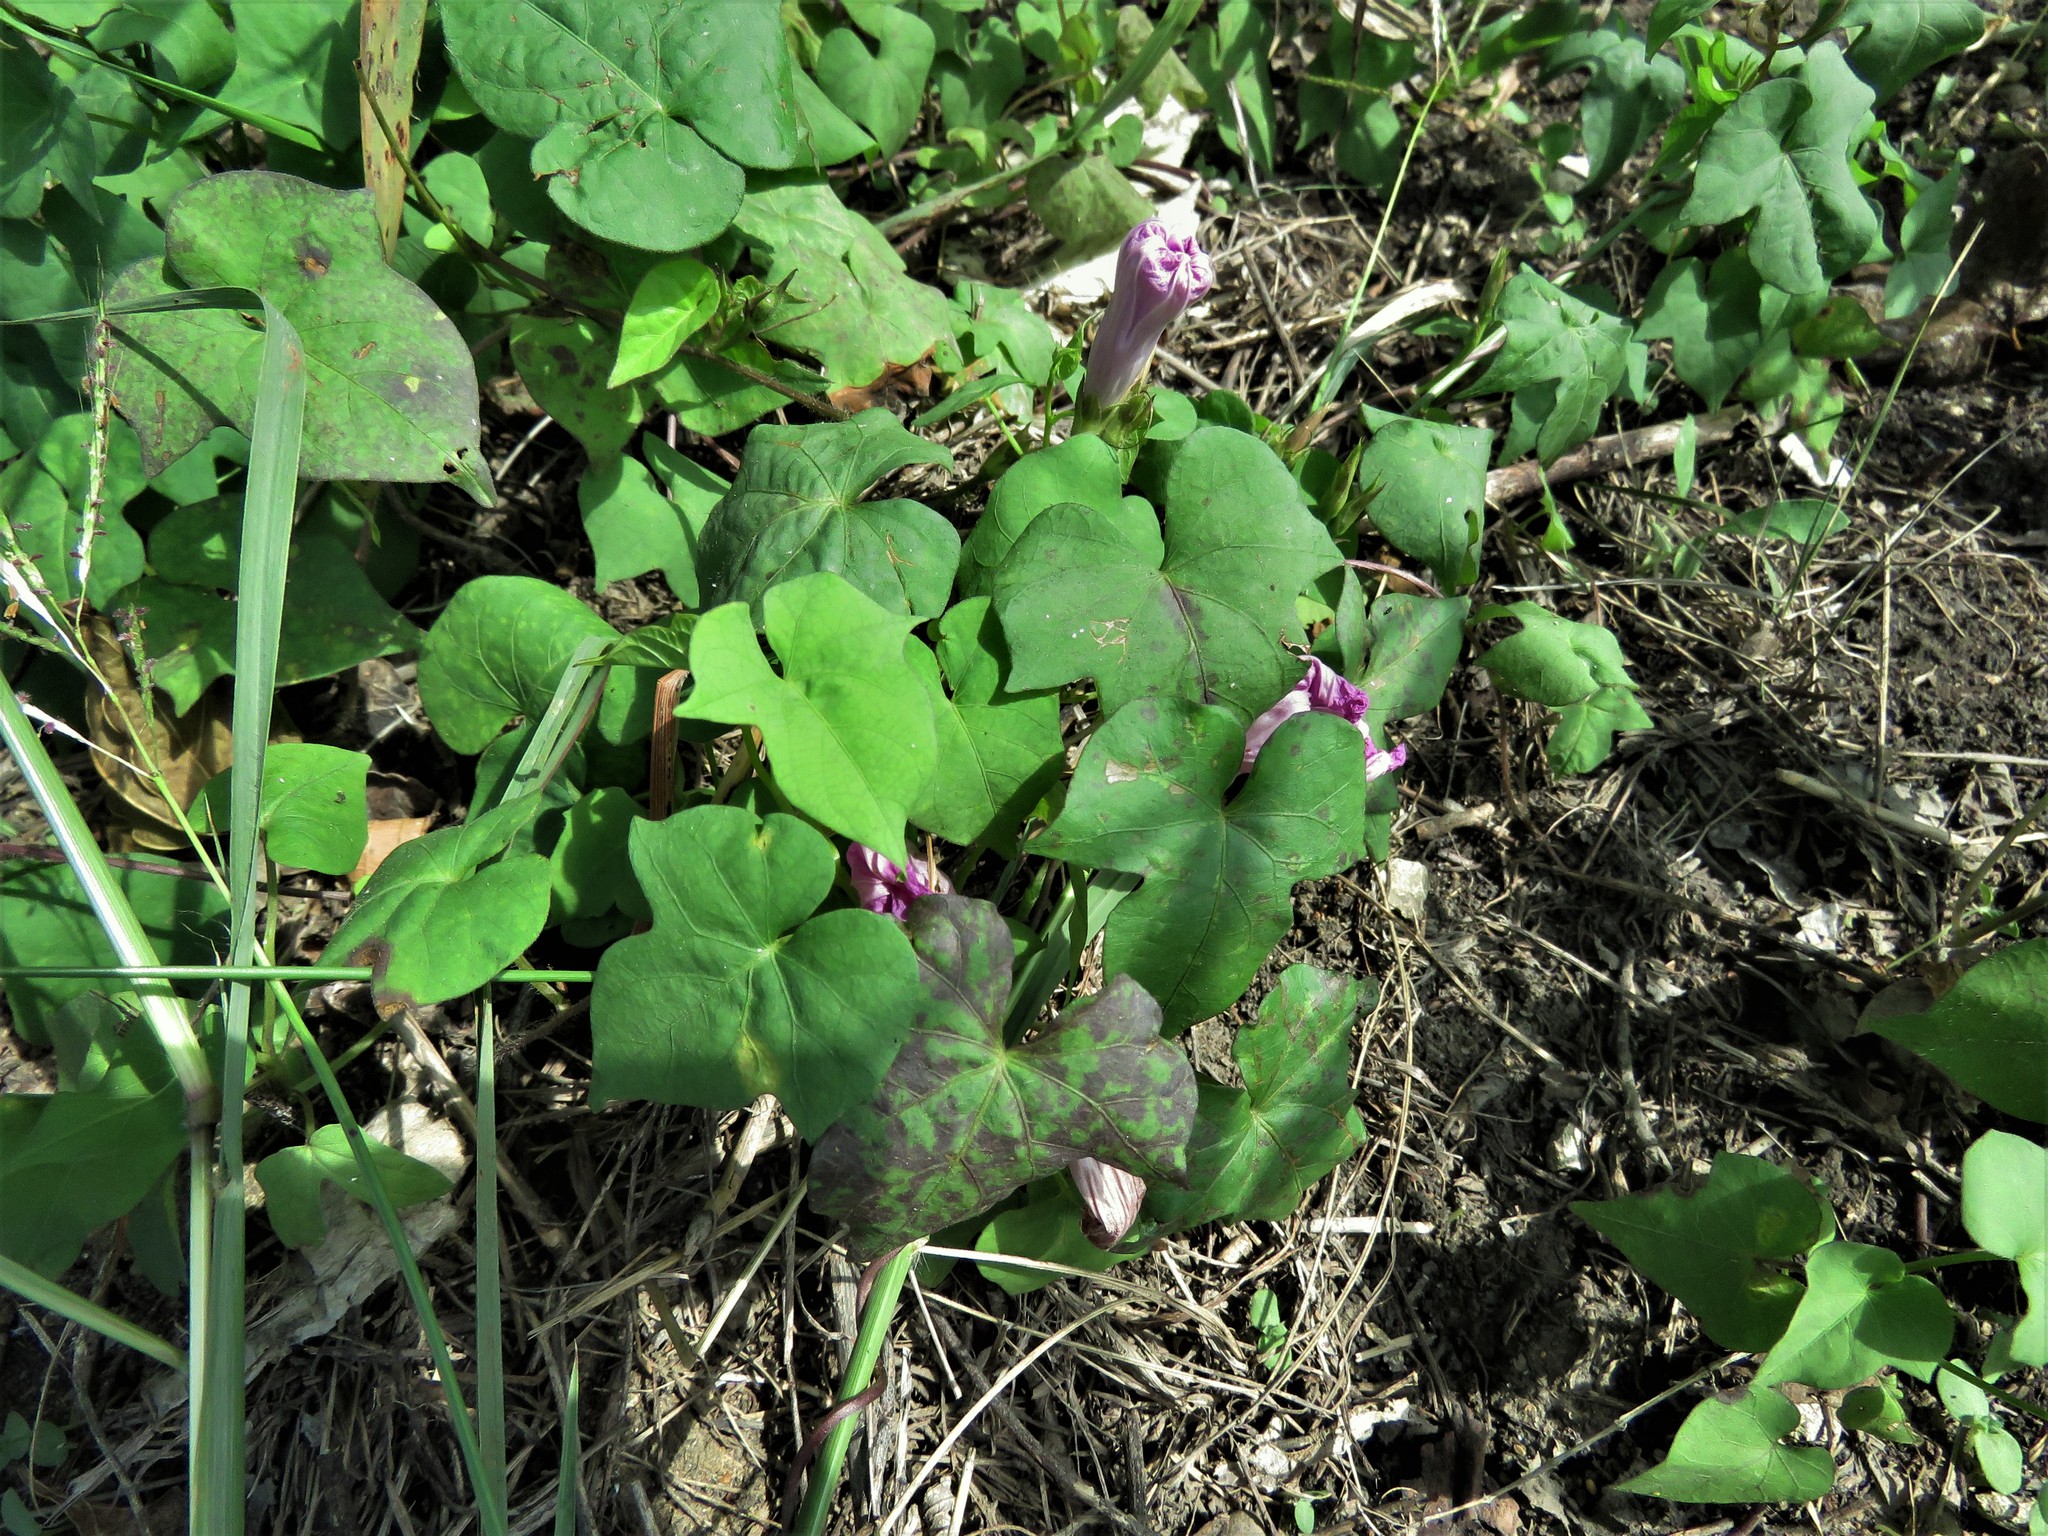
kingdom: Plantae
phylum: Tracheophyta
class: Magnoliopsida
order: Solanales
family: Convolvulaceae
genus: Ipomoea
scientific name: Ipomoea cordatotriloba
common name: Cotton morning glory
